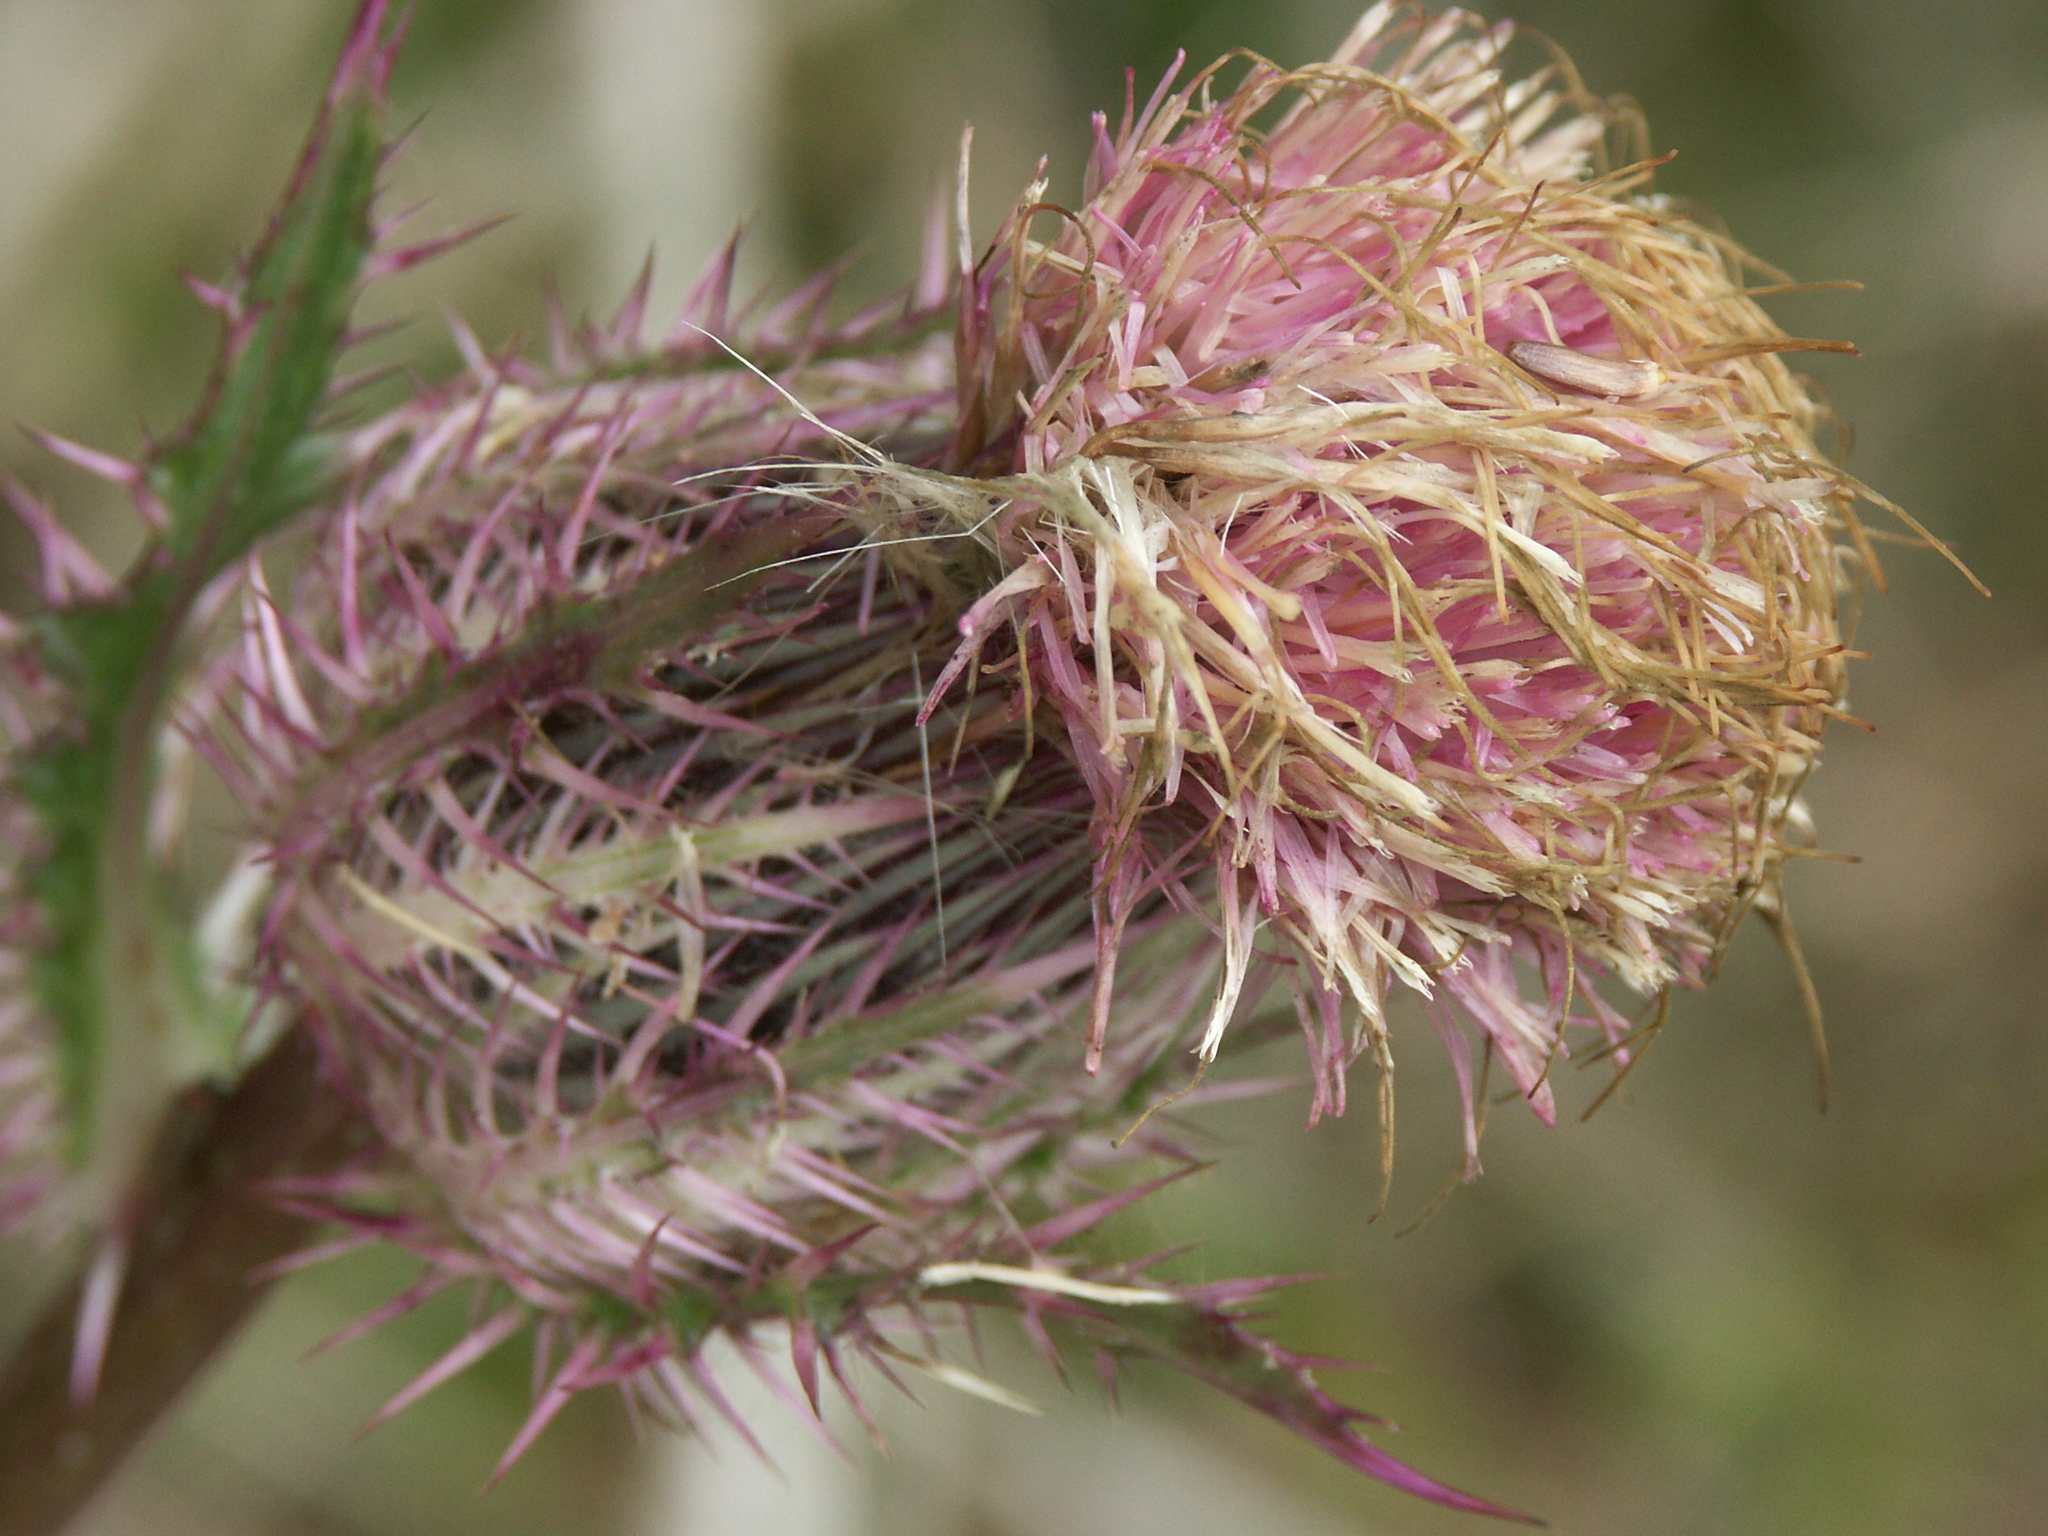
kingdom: Plantae
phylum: Tracheophyta
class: Magnoliopsida
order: Asterales
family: Asteraceae
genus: Cirsium
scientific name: Cirsium horridulum
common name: Bristly thistle
